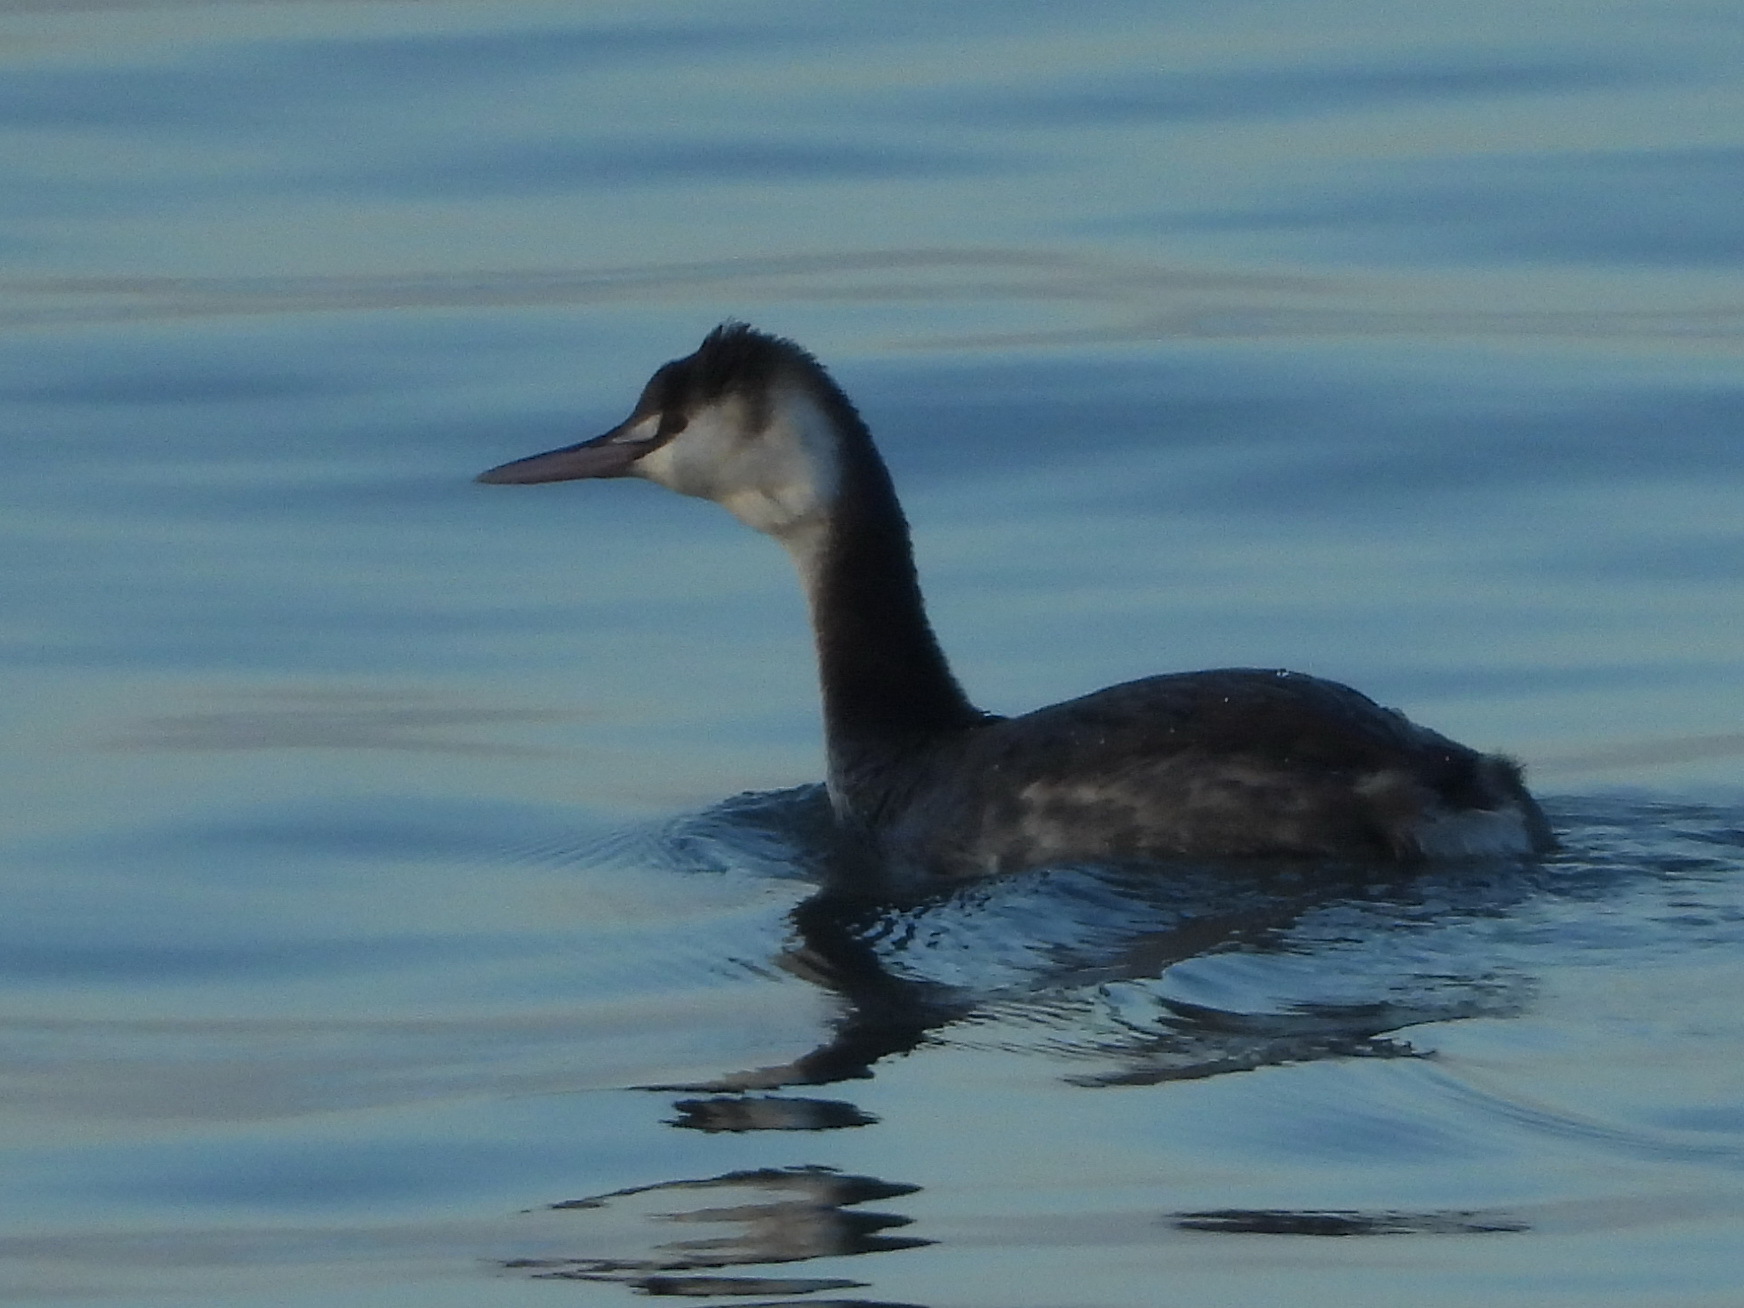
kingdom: Animalia
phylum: Chordata
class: Aves
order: Podicipediformes
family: Podicipedidae
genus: Podiceps
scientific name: Podiceps cristatus
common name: Great crested grebe
